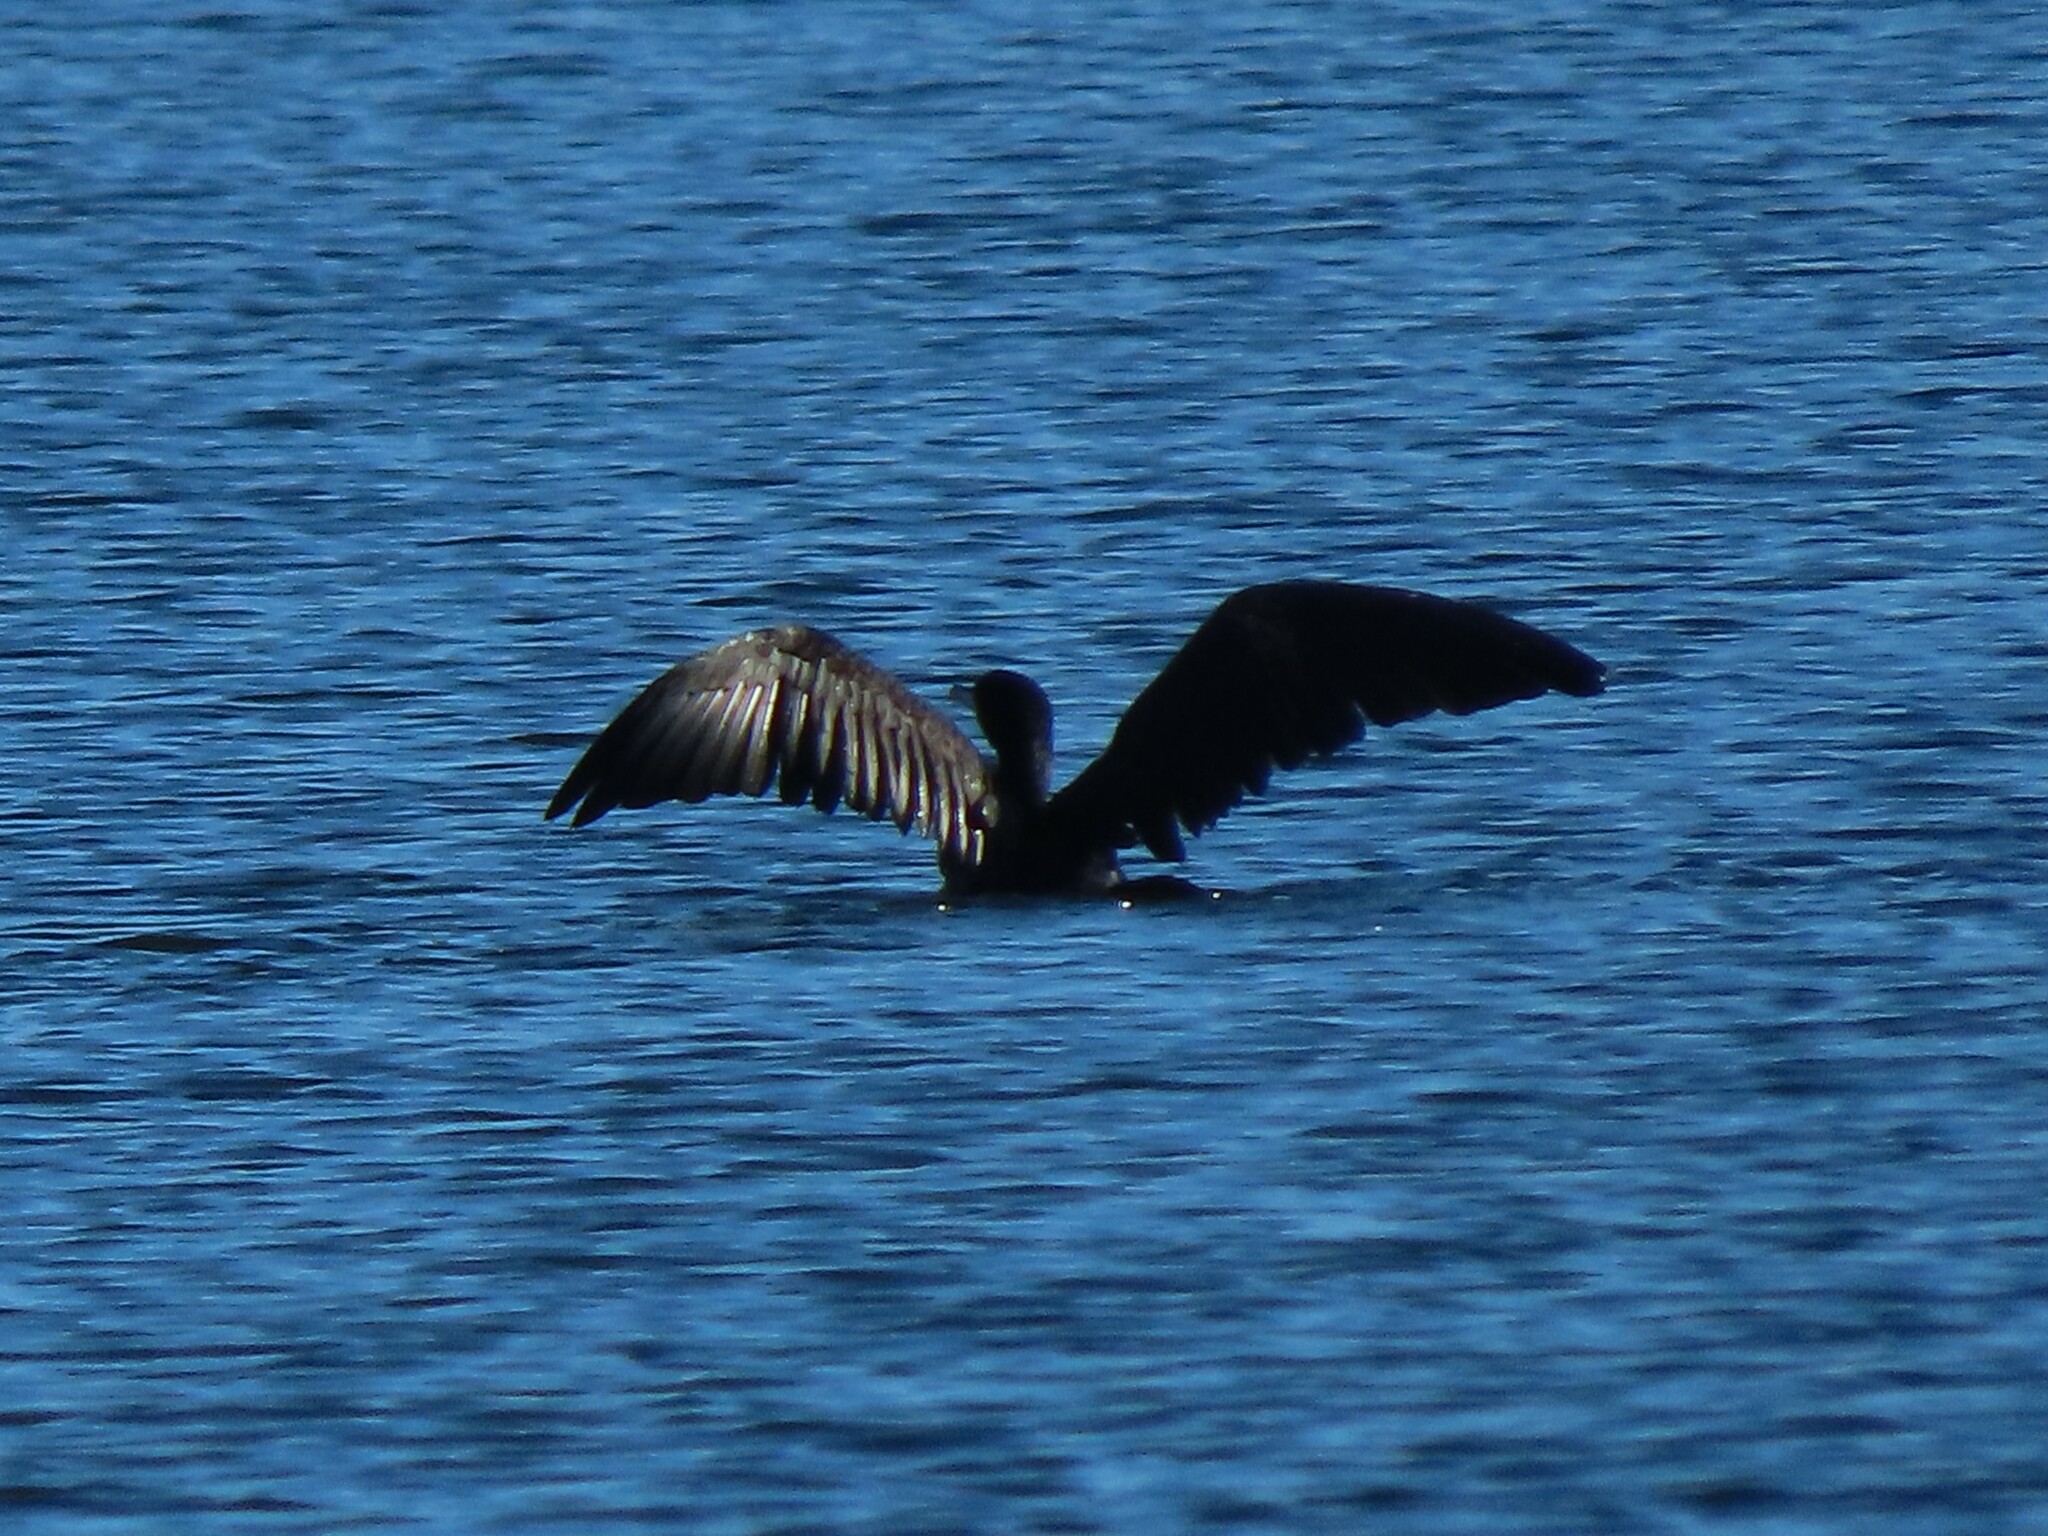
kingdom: Animalia
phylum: Chordata
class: Aves
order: Suliformes
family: Phalacrocoracidae
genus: Phalacrocorax
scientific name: Phalacrocorax carbo
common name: Great cormorant
